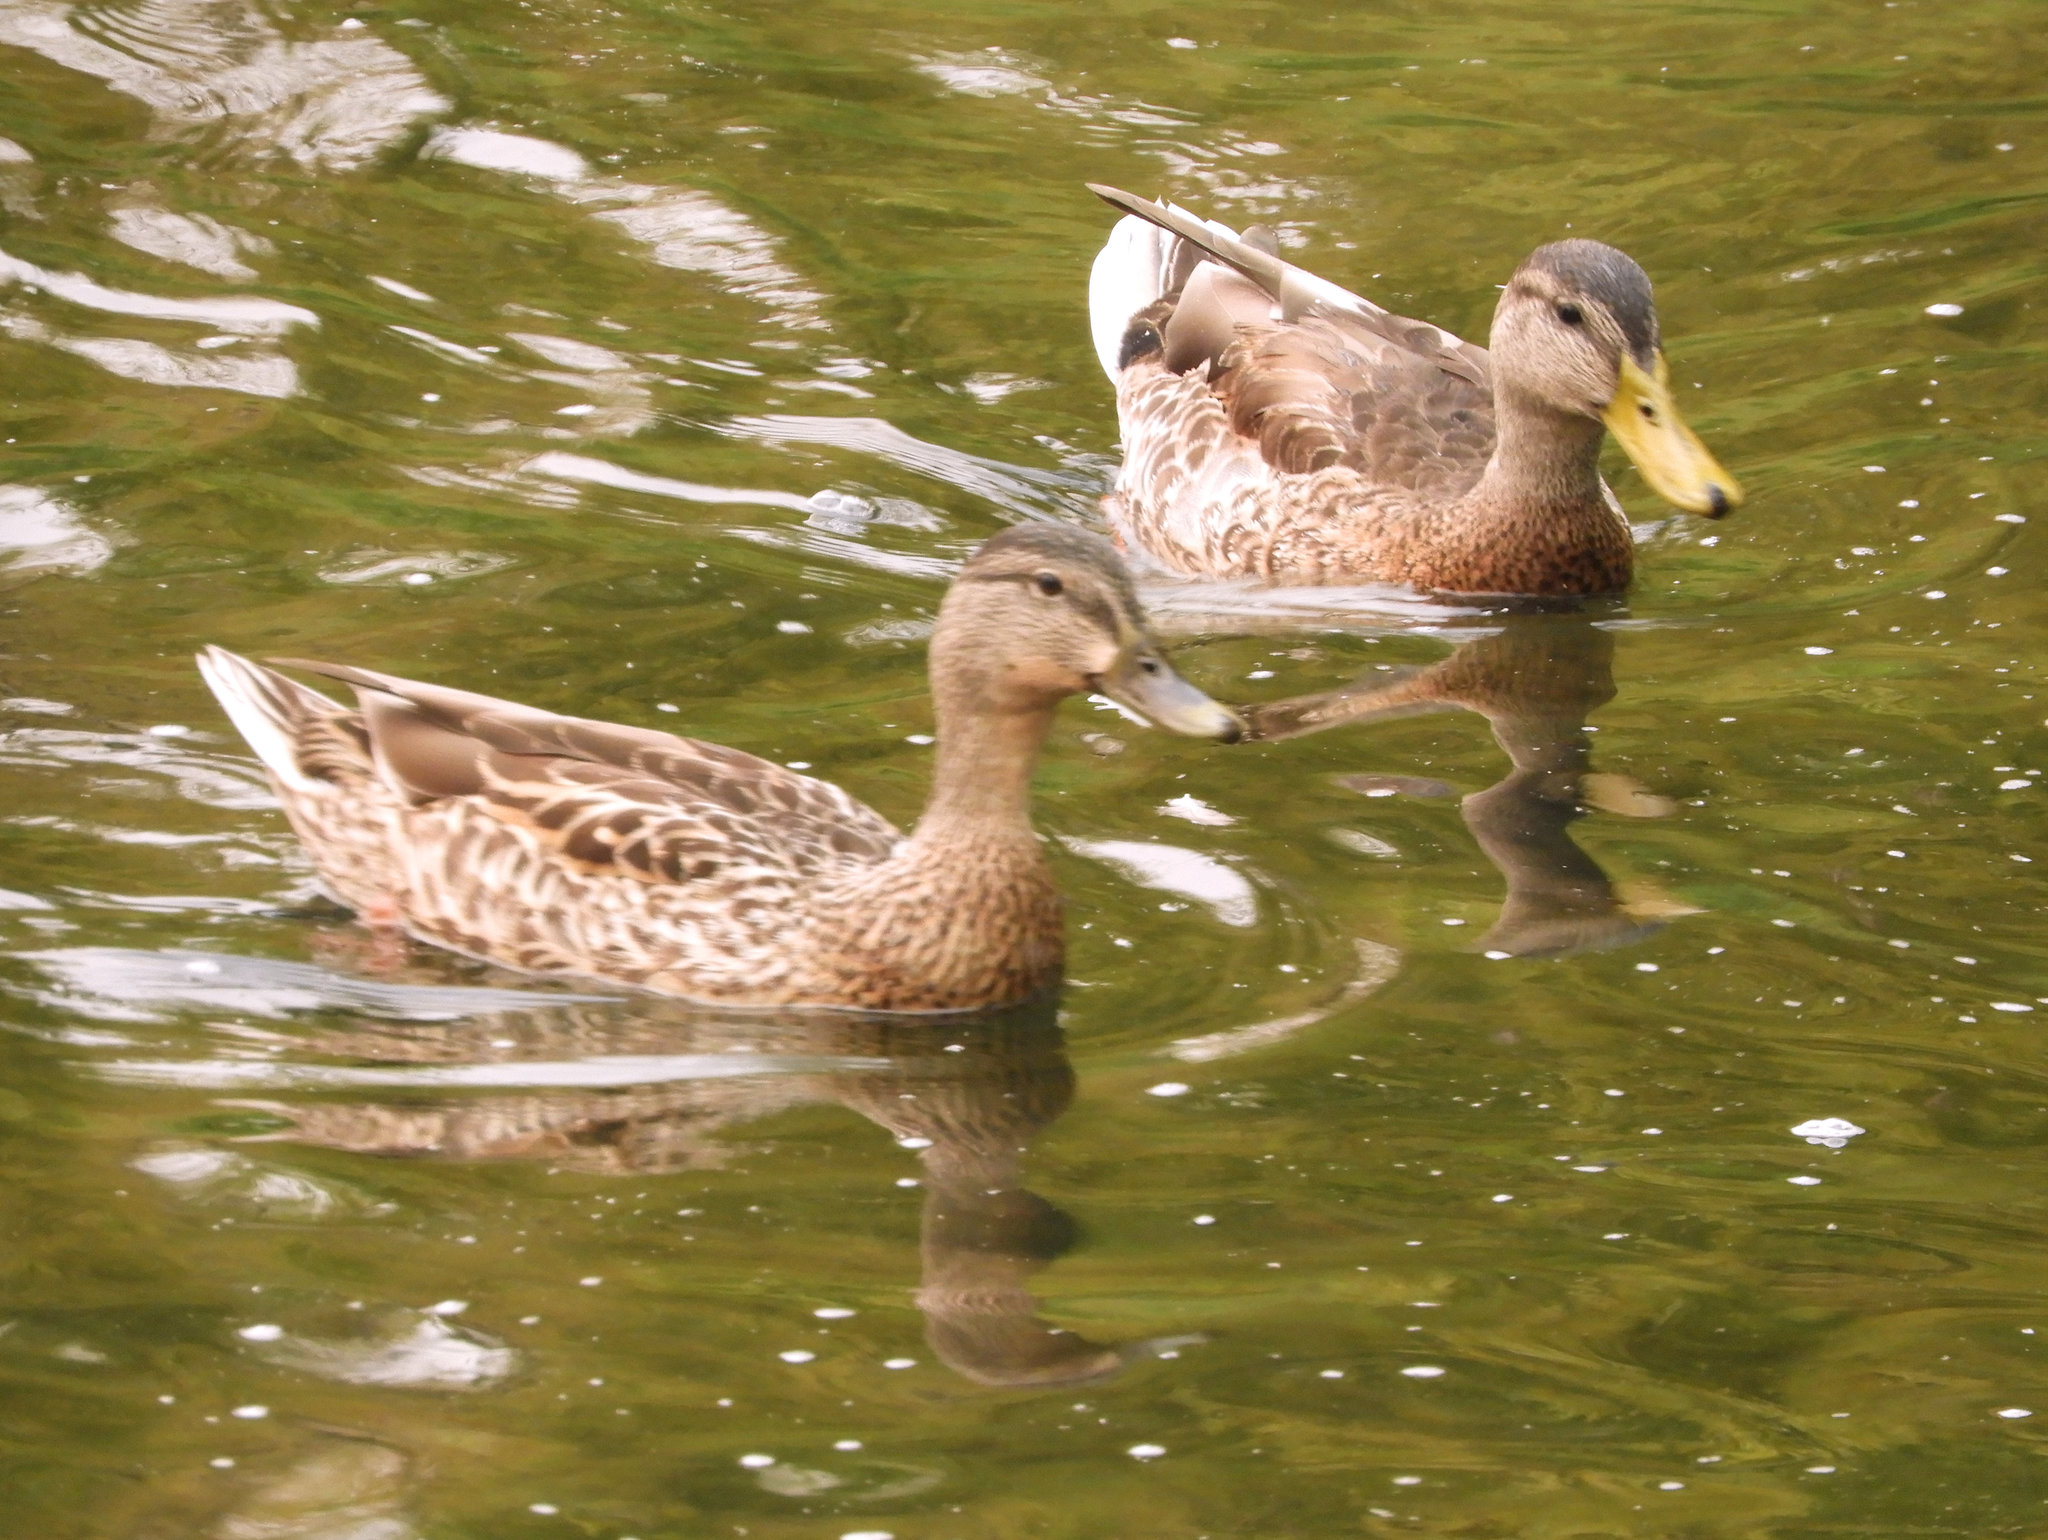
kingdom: Animalia
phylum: Chordata
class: Aves
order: Anseriformes
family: Anatidae
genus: Anas
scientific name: Anas platyrhynchos
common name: Mallard
